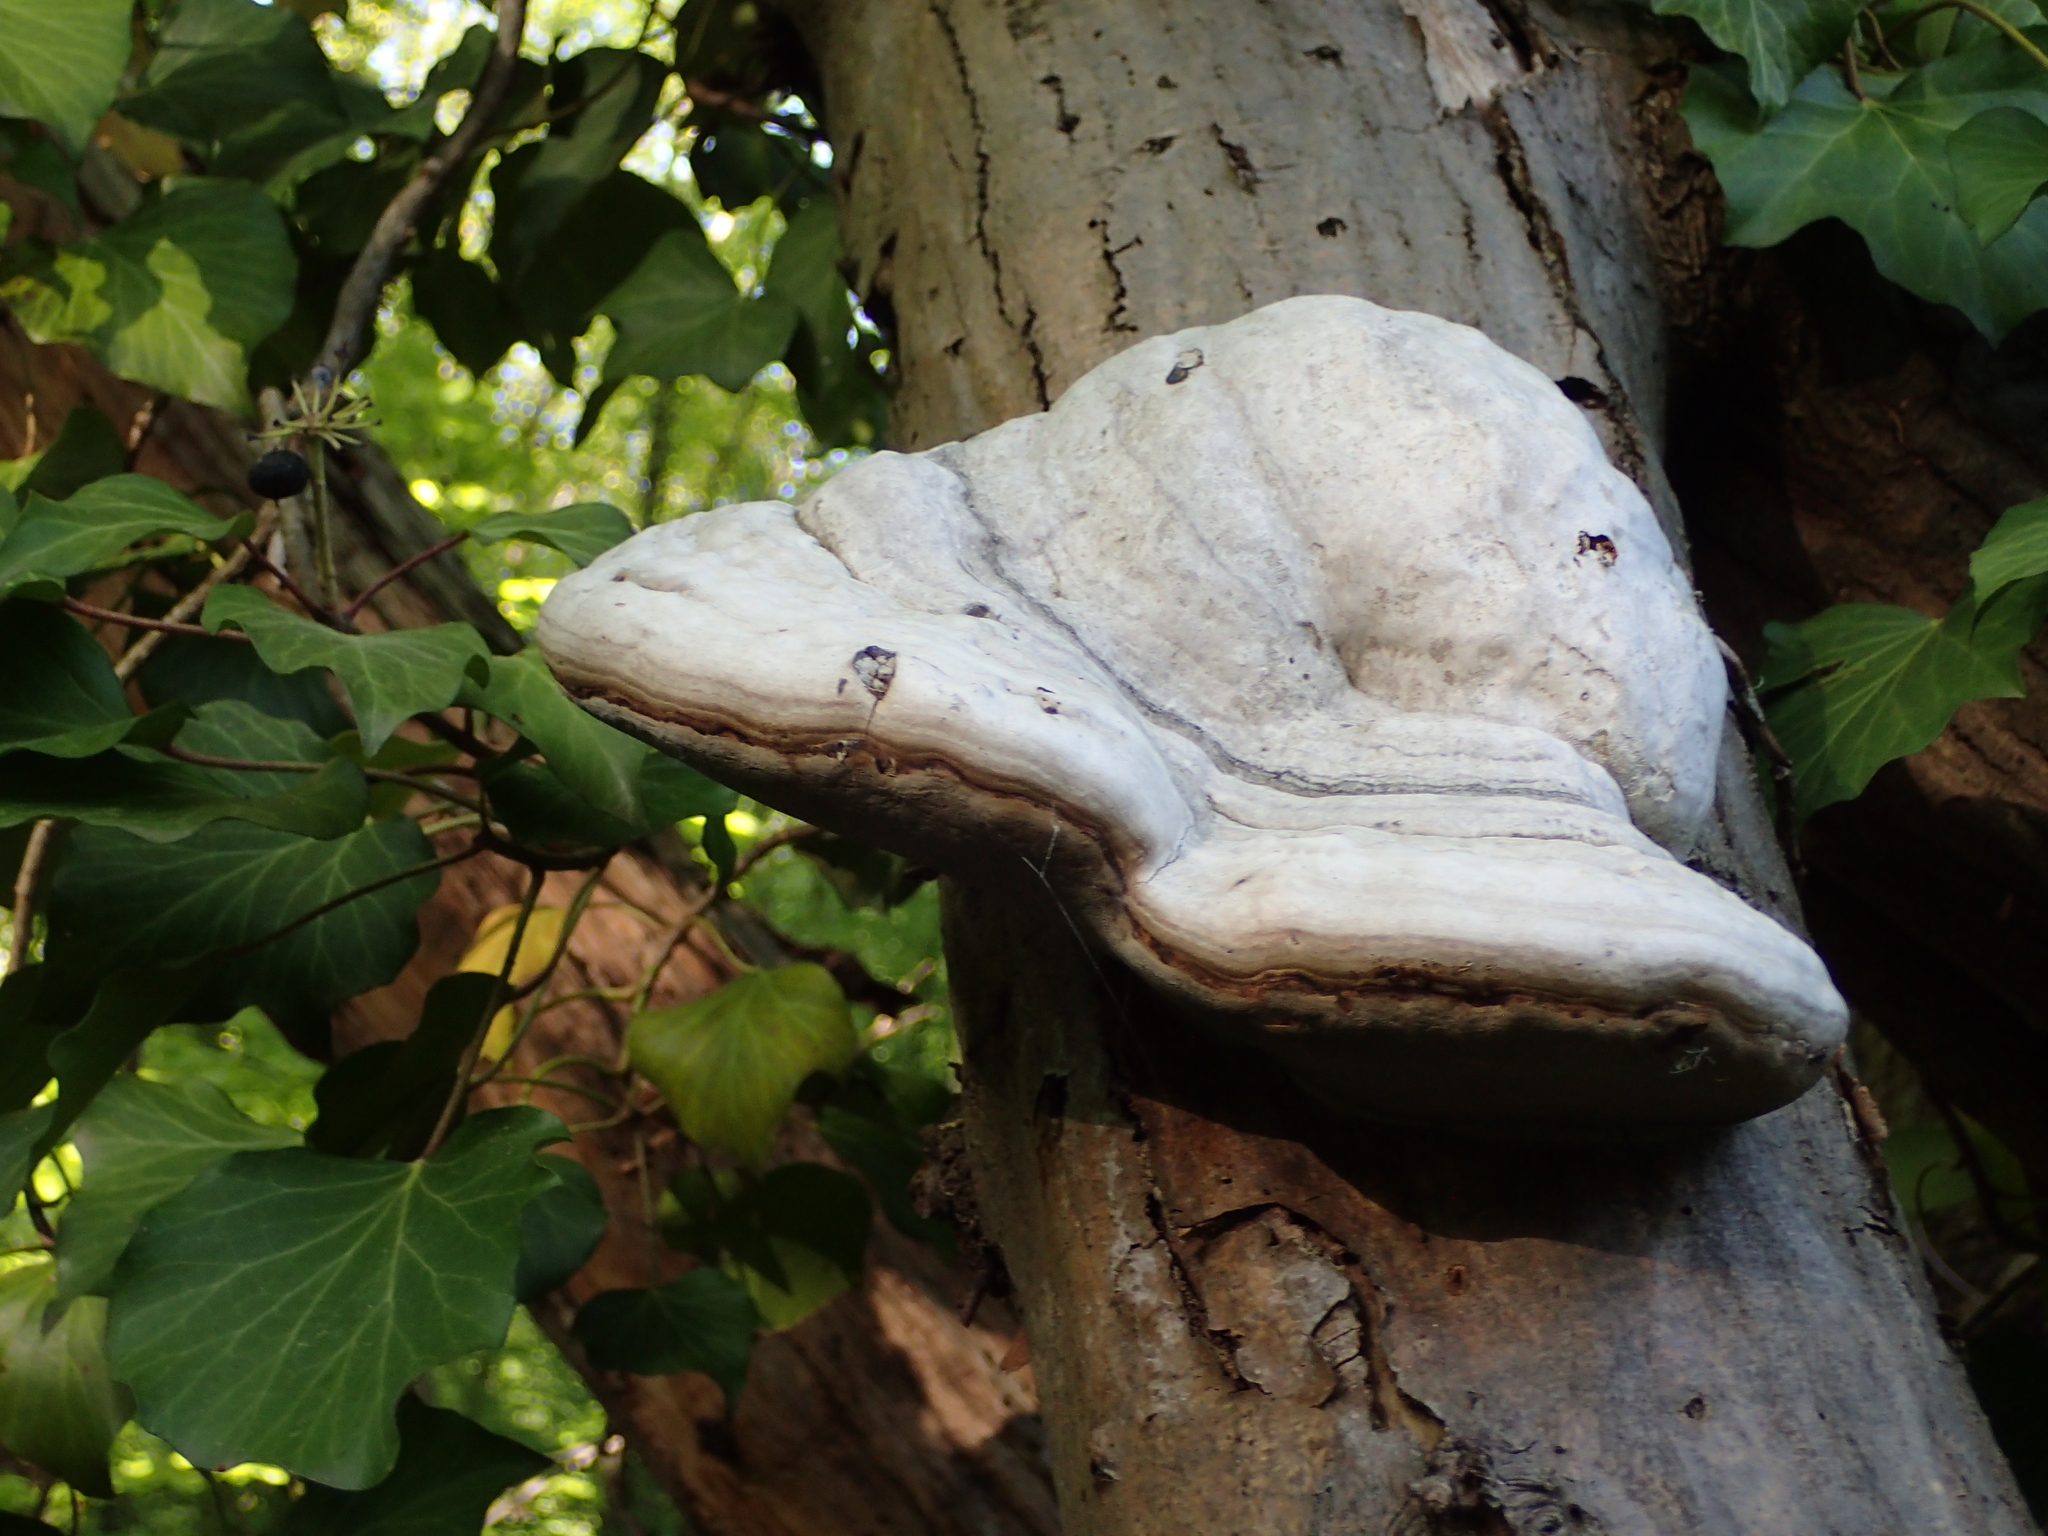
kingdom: Fungi
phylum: Basidiomycota
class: Agaricomycetes
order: Polyporales
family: Polyporaceae
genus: Fomes
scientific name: Fomes fomentarius
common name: Hoof fungus
